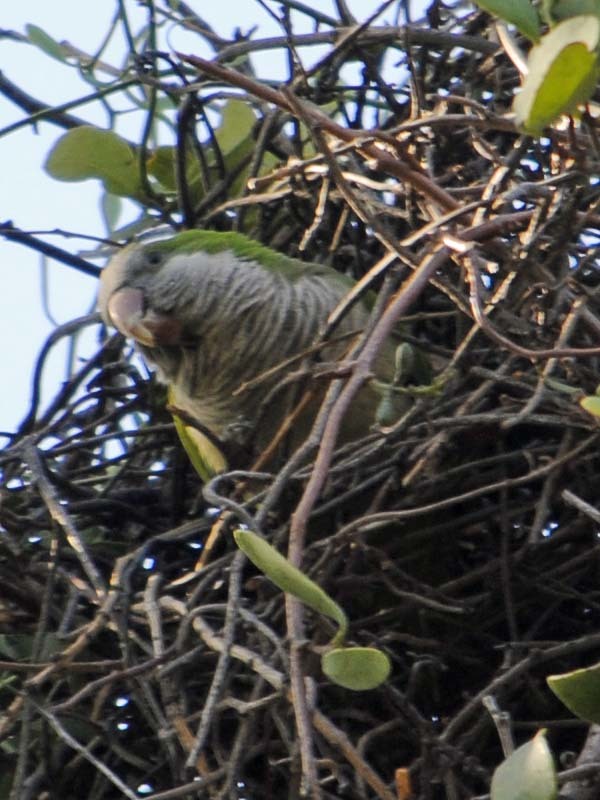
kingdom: Animalia
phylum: Chordata
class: Aves
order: Psittaciformes
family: Psittacidae
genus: Myiopsitta
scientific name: Myiopsitta monachus
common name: Monk parakeet
